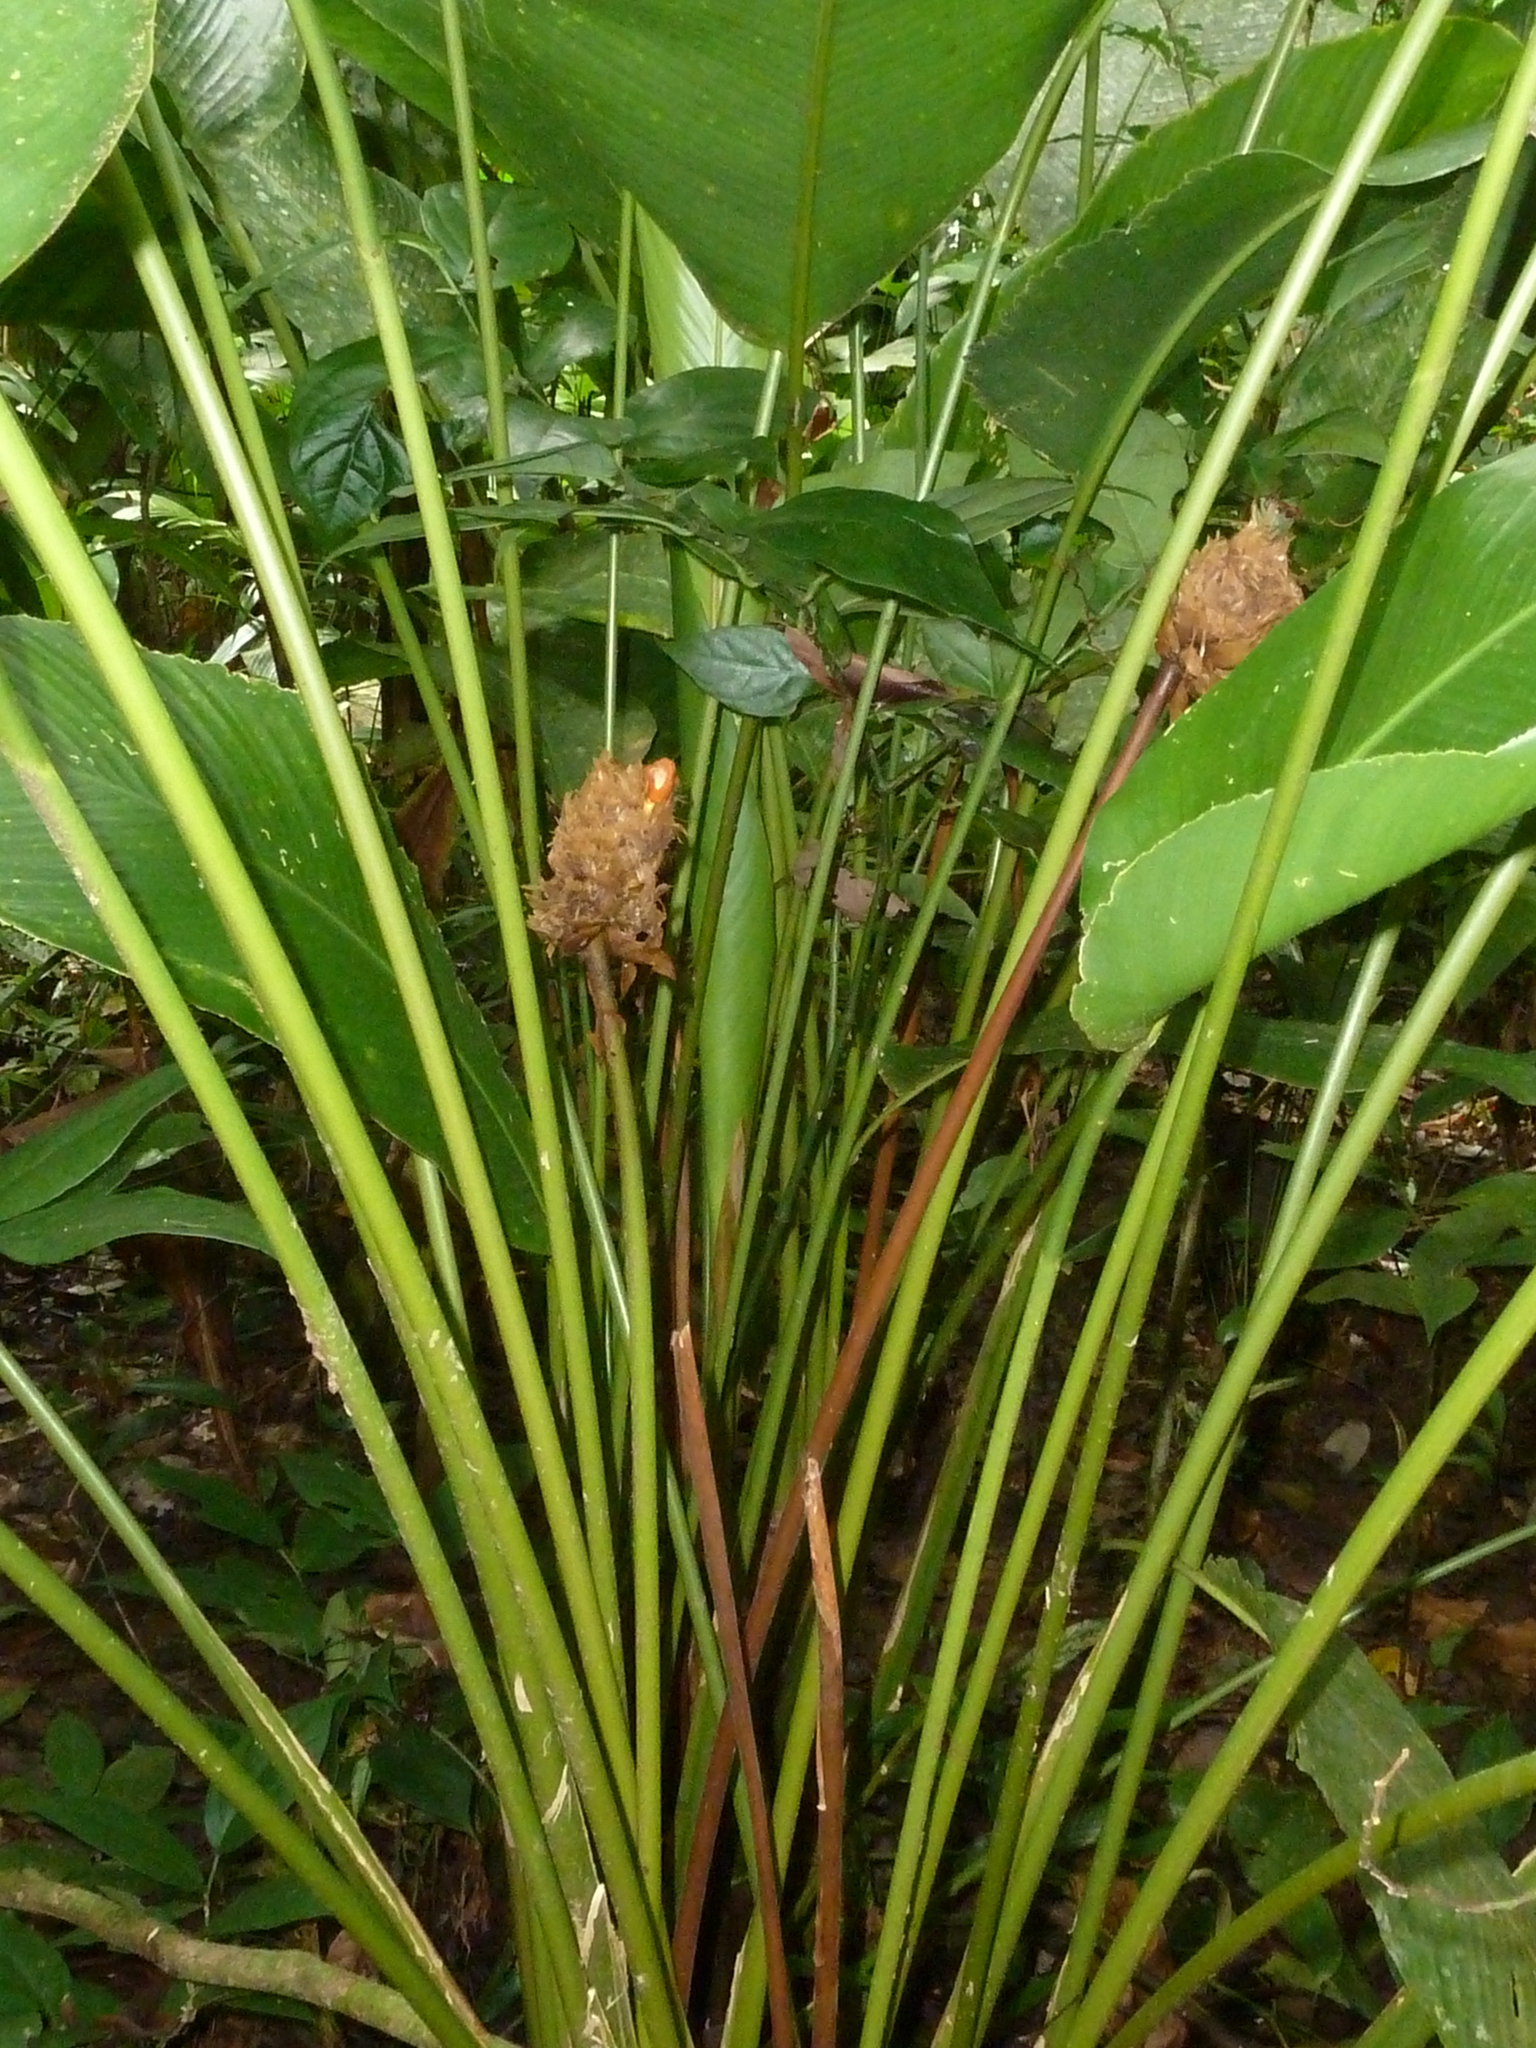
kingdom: Plantae
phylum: Tracheophyta
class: Liliopsida
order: Zingiberales
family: Marantaceae
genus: Goeppertia
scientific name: Goeppertia inocephala
